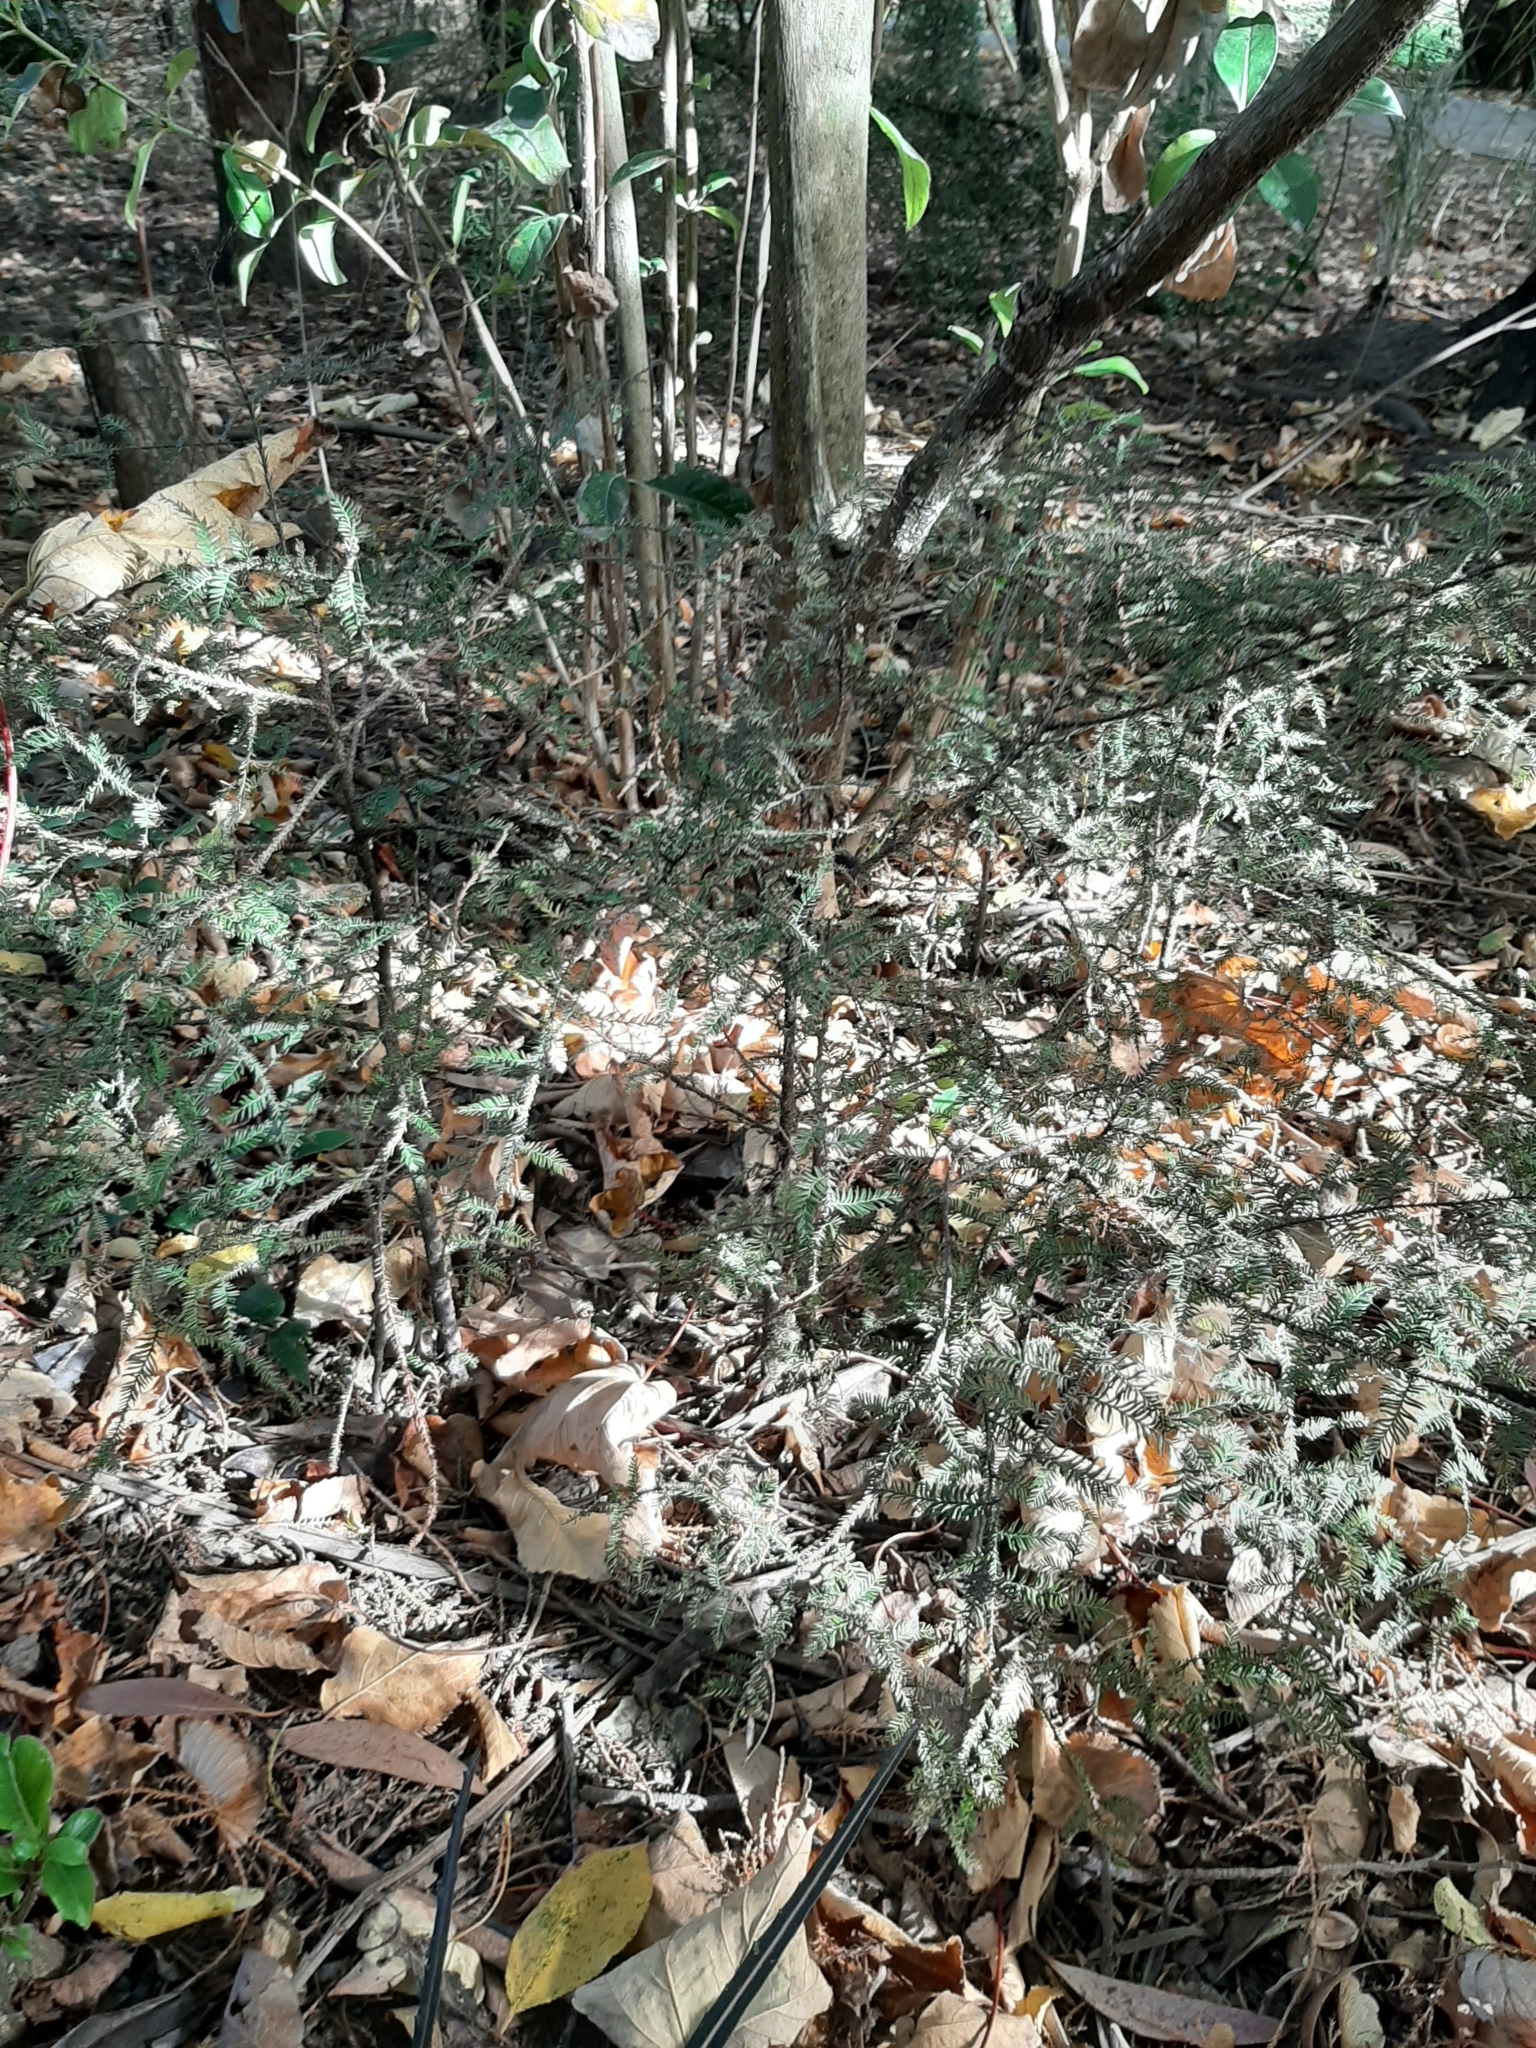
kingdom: Plantae
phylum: Tracheophyta
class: Pinopsida
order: Pinales
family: Podocarpaceae
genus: Dacrycarpus
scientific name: Dacrycarpus dacrydioides
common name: White pine
